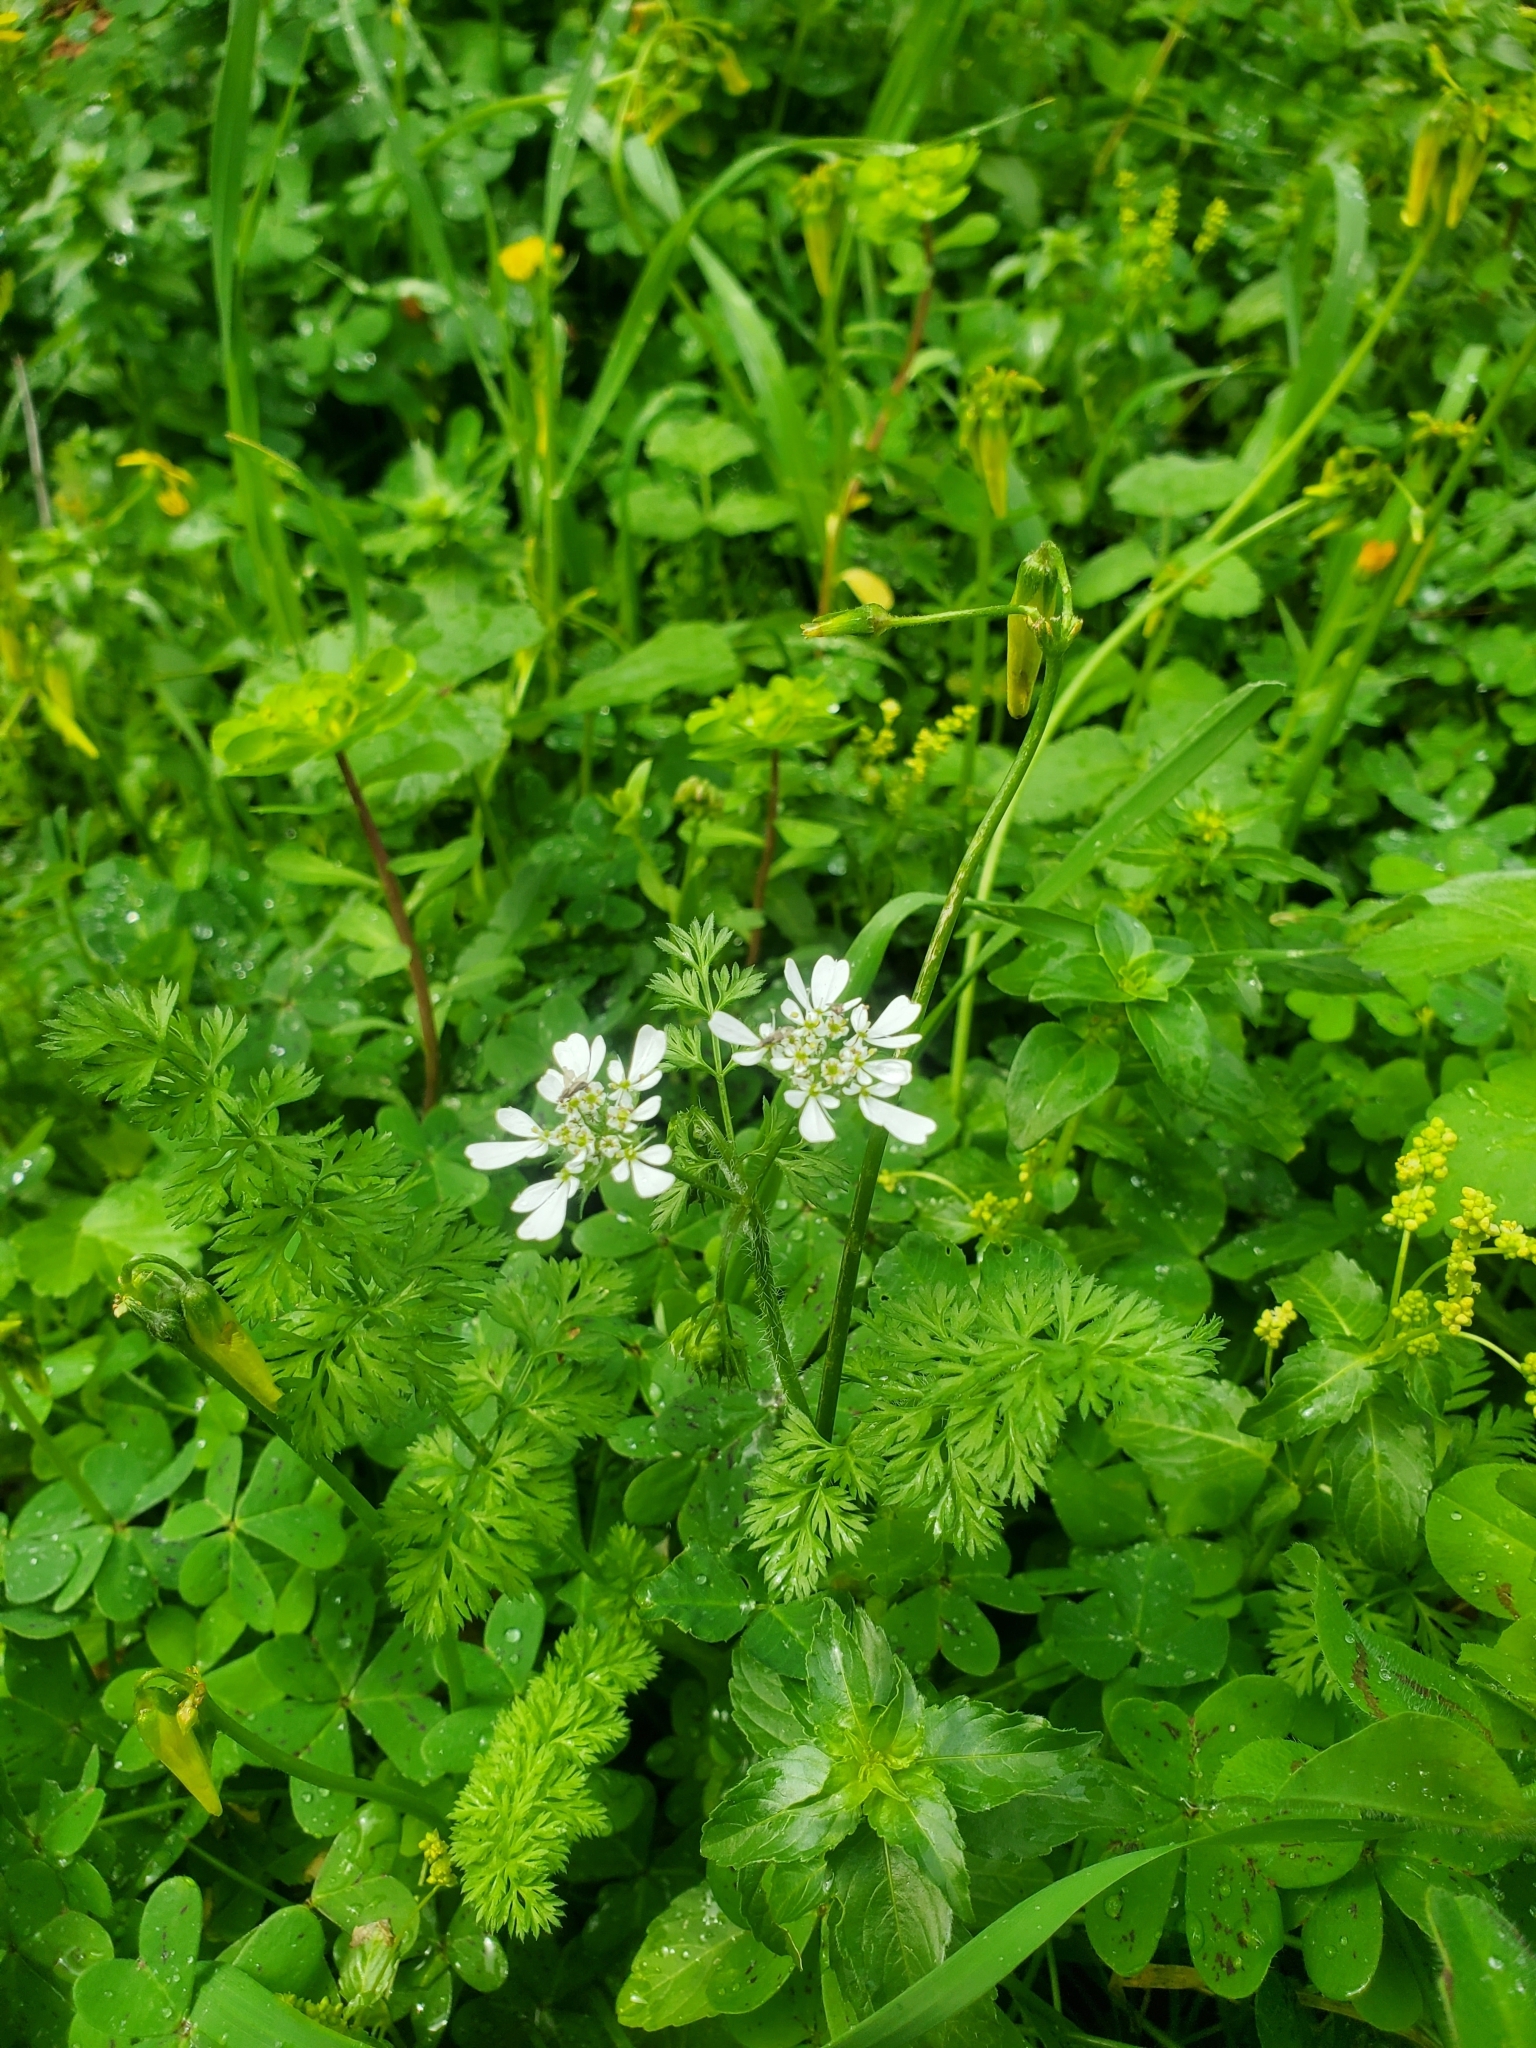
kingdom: Plantae
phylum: Tracheophyta
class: Magnoliopsida
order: Apiales
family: Apiaceae
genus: Scandix
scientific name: Scandix pecten-veneris
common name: Shepherd's-needle
